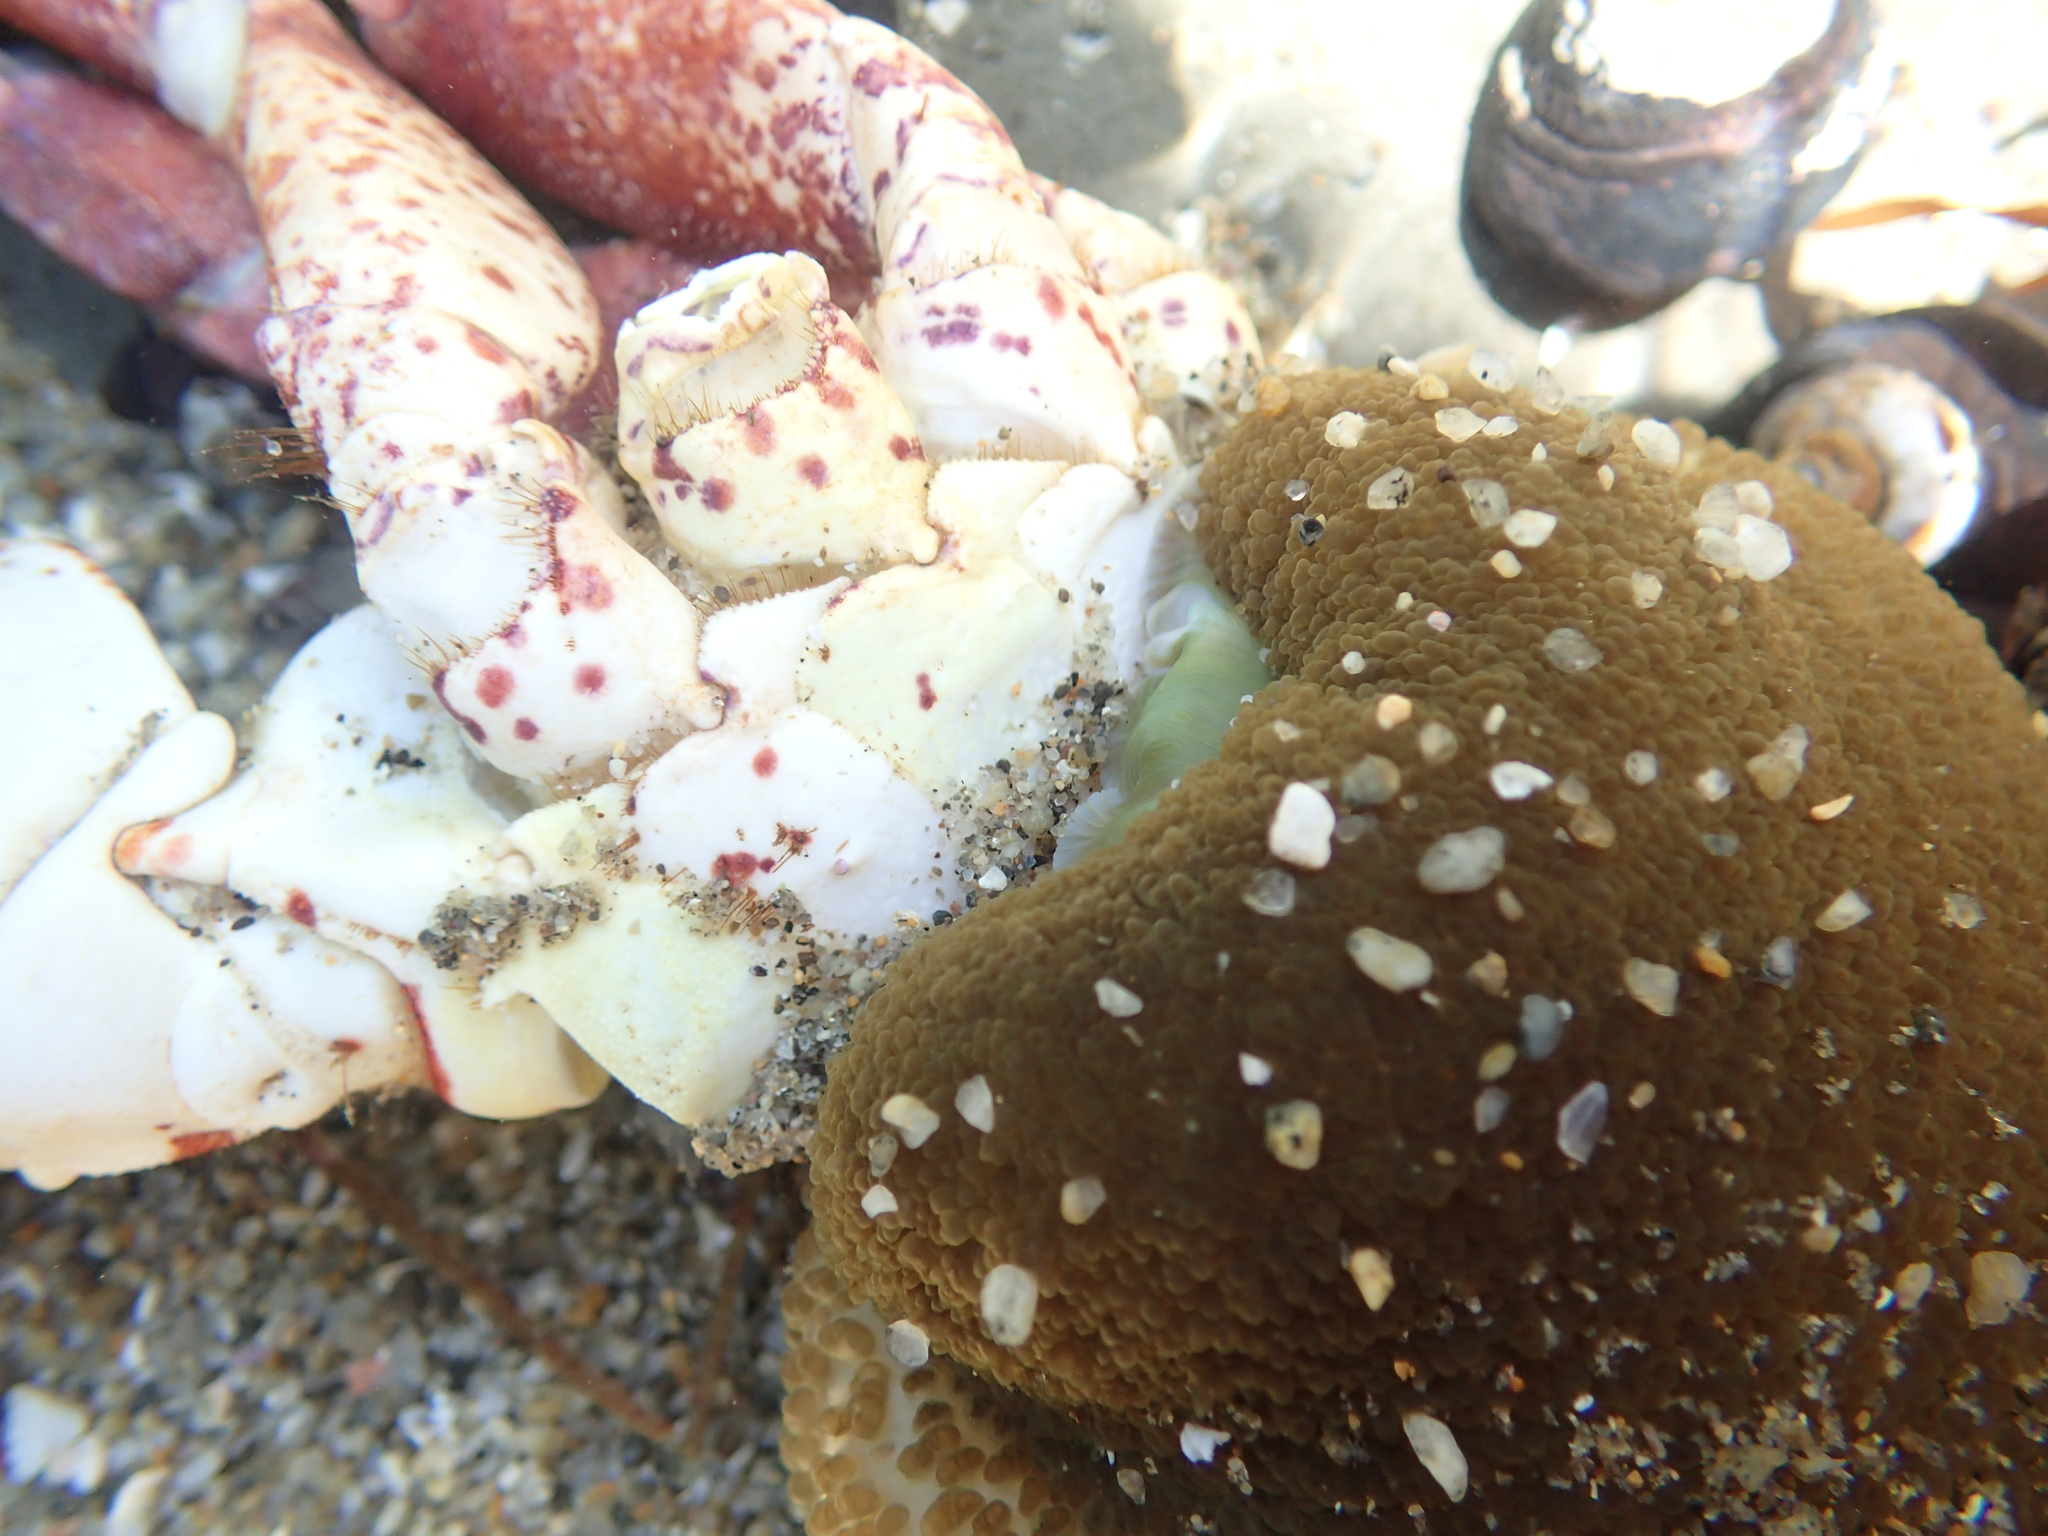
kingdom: Animalia
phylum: Arthropoda
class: Malacostraca
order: Decapoda
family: Cancridae
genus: Romaleon
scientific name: Romaleon antennarium
